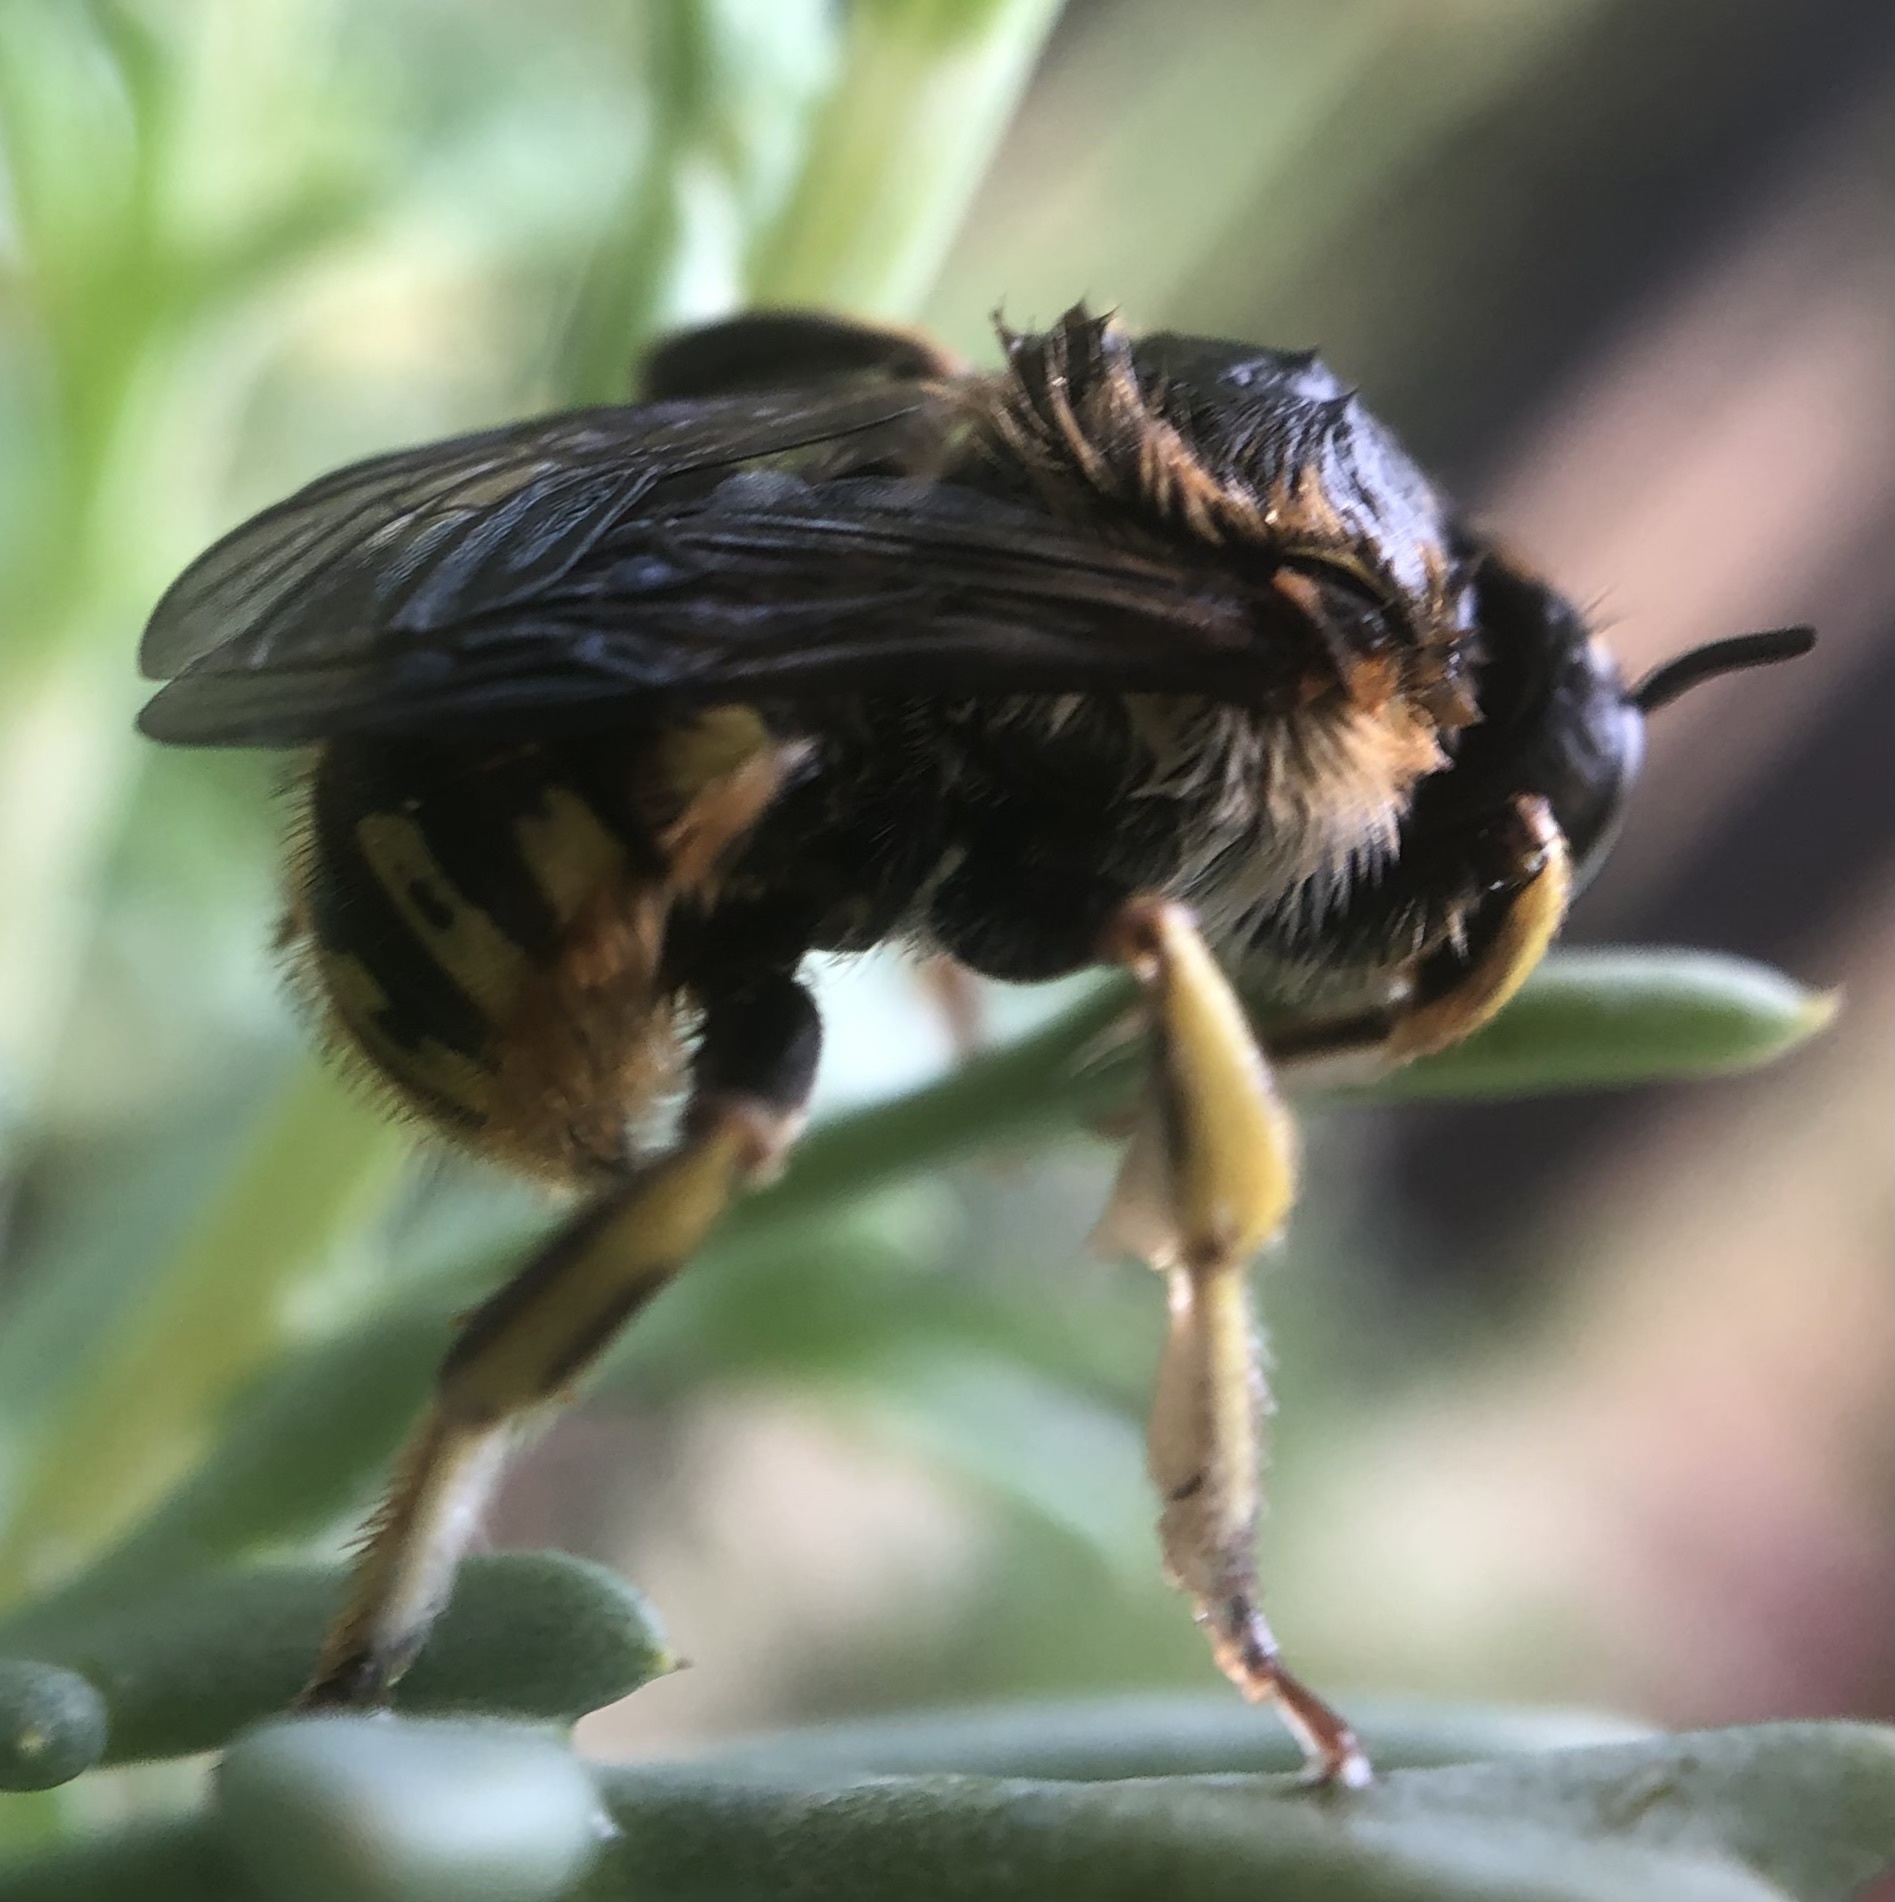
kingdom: Animalia
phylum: Arthropoda
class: Insecta
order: Hymenoptera
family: Megachilidae
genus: Anthidium
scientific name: Anthidium manicatum
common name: Wool carder bee
